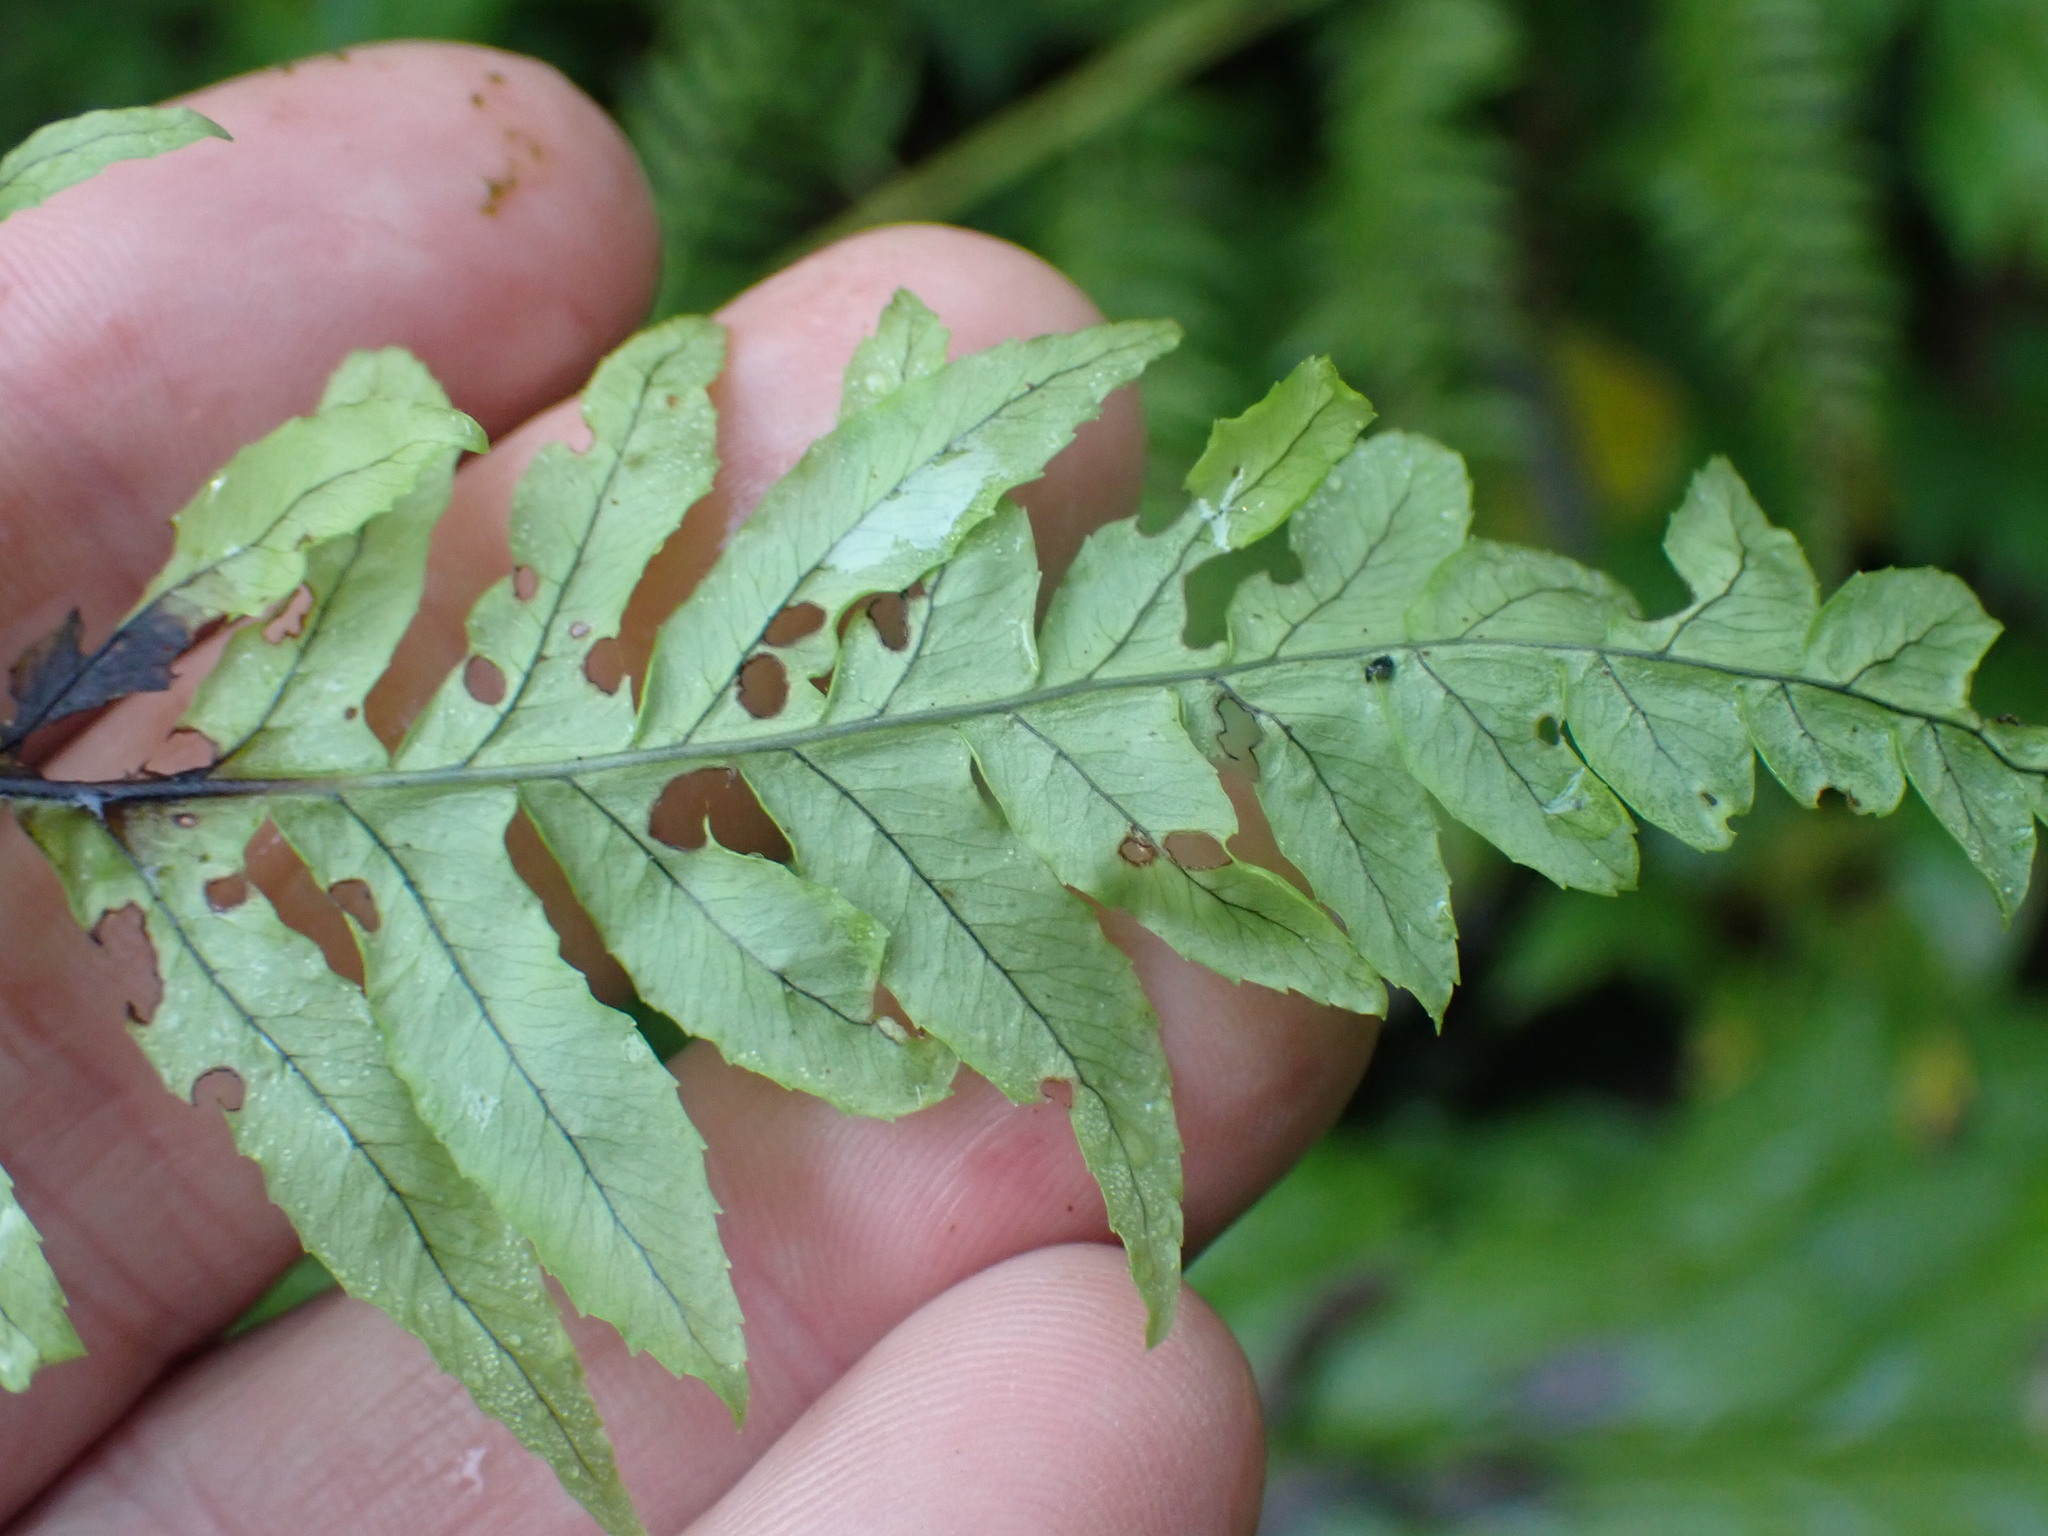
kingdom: Plantae
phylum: Tracheophyta
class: Polypodiopsida
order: Polypodiales
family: Polypodiaceae
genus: Polypodium
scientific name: Polypodium glycyrrhiza
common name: Licorice fern
